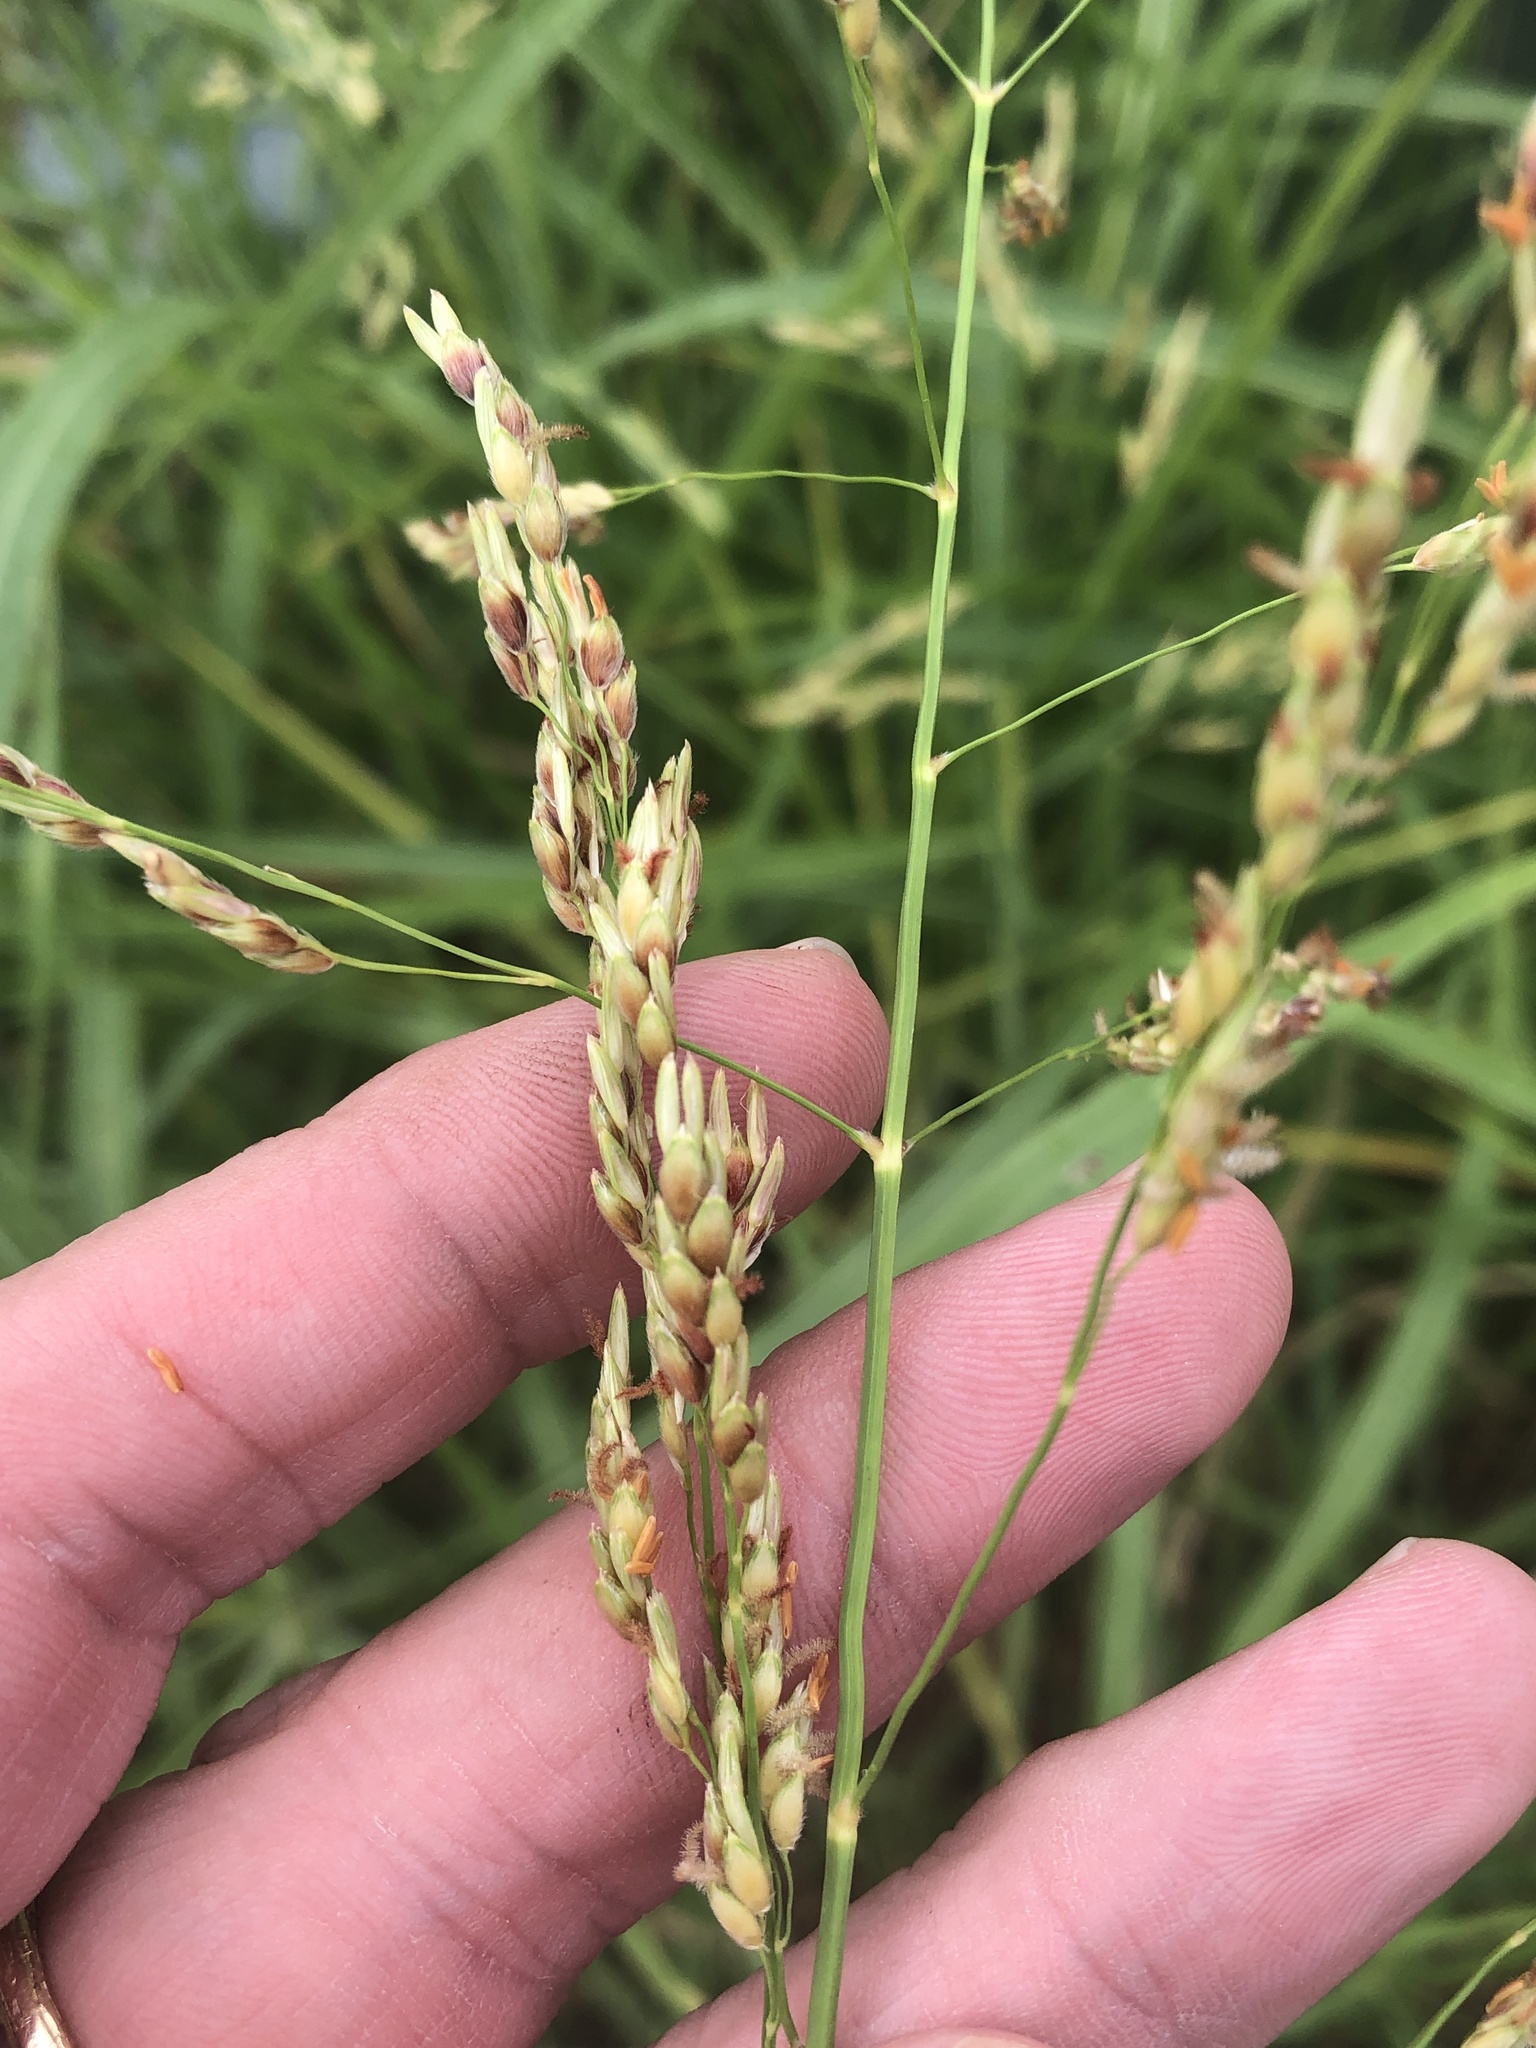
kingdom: Plantae
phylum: Tracheophyta
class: Liliopsida
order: Poales
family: Poaceae
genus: Sorghum
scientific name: Sorghum halepense
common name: Johnson-grass
